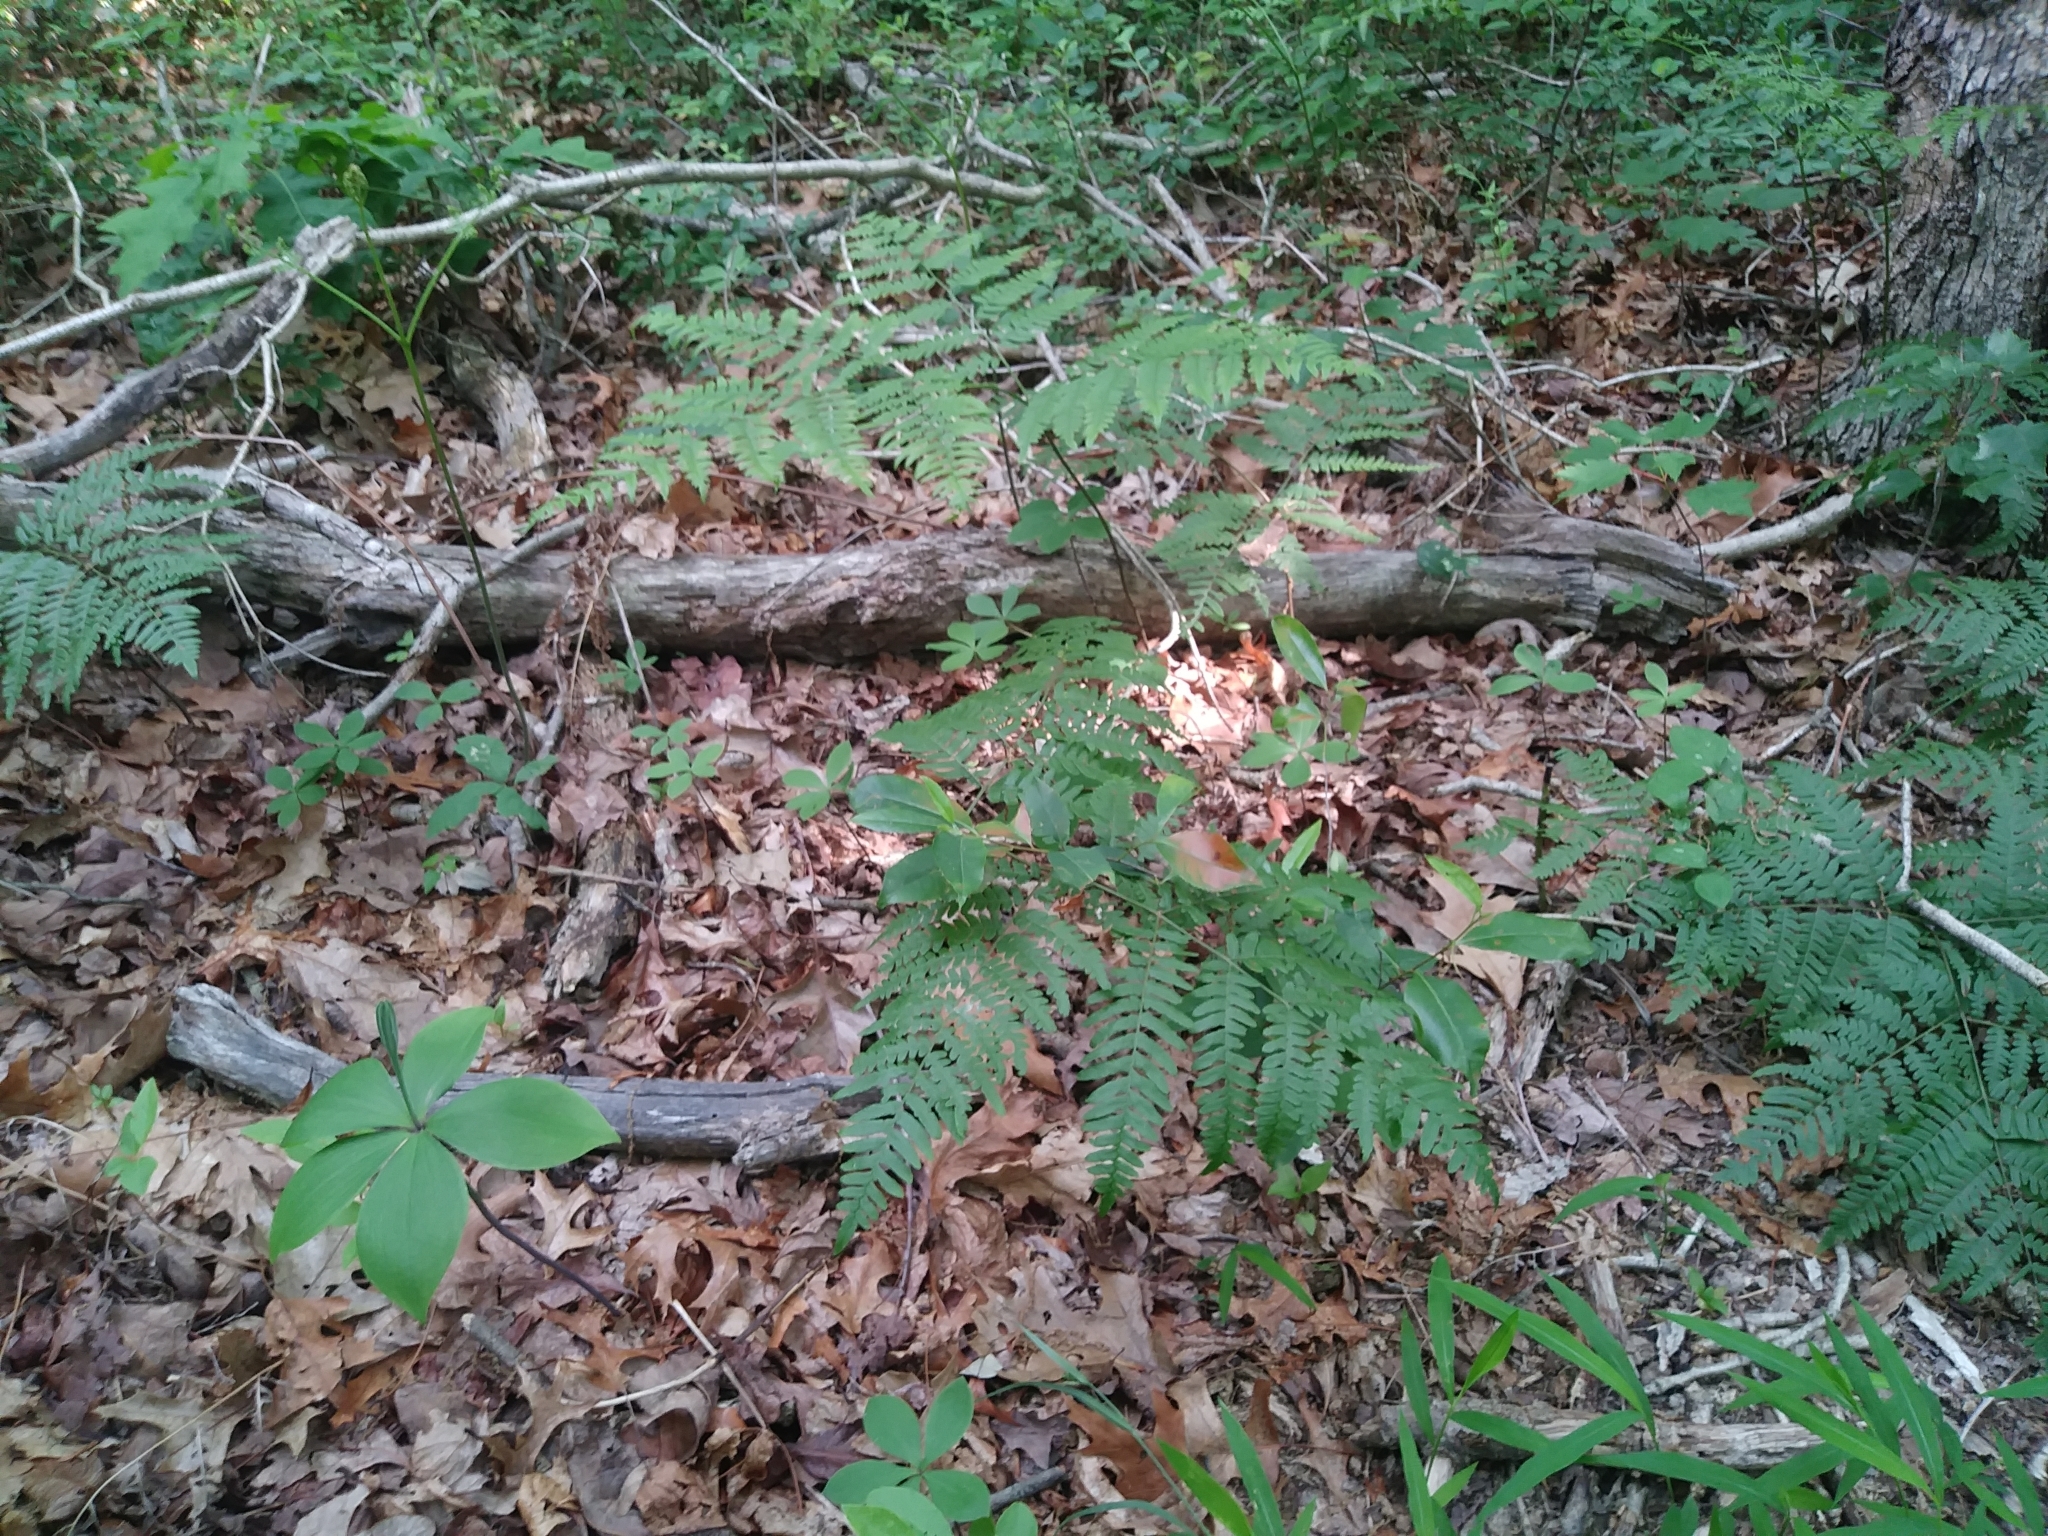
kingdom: Plantae
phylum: Tracheophyta
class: Liliopsida
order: Asparagales
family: Orchidaceae
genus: Isotria
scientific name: Isotria verticillata
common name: Large whorled pogonia
